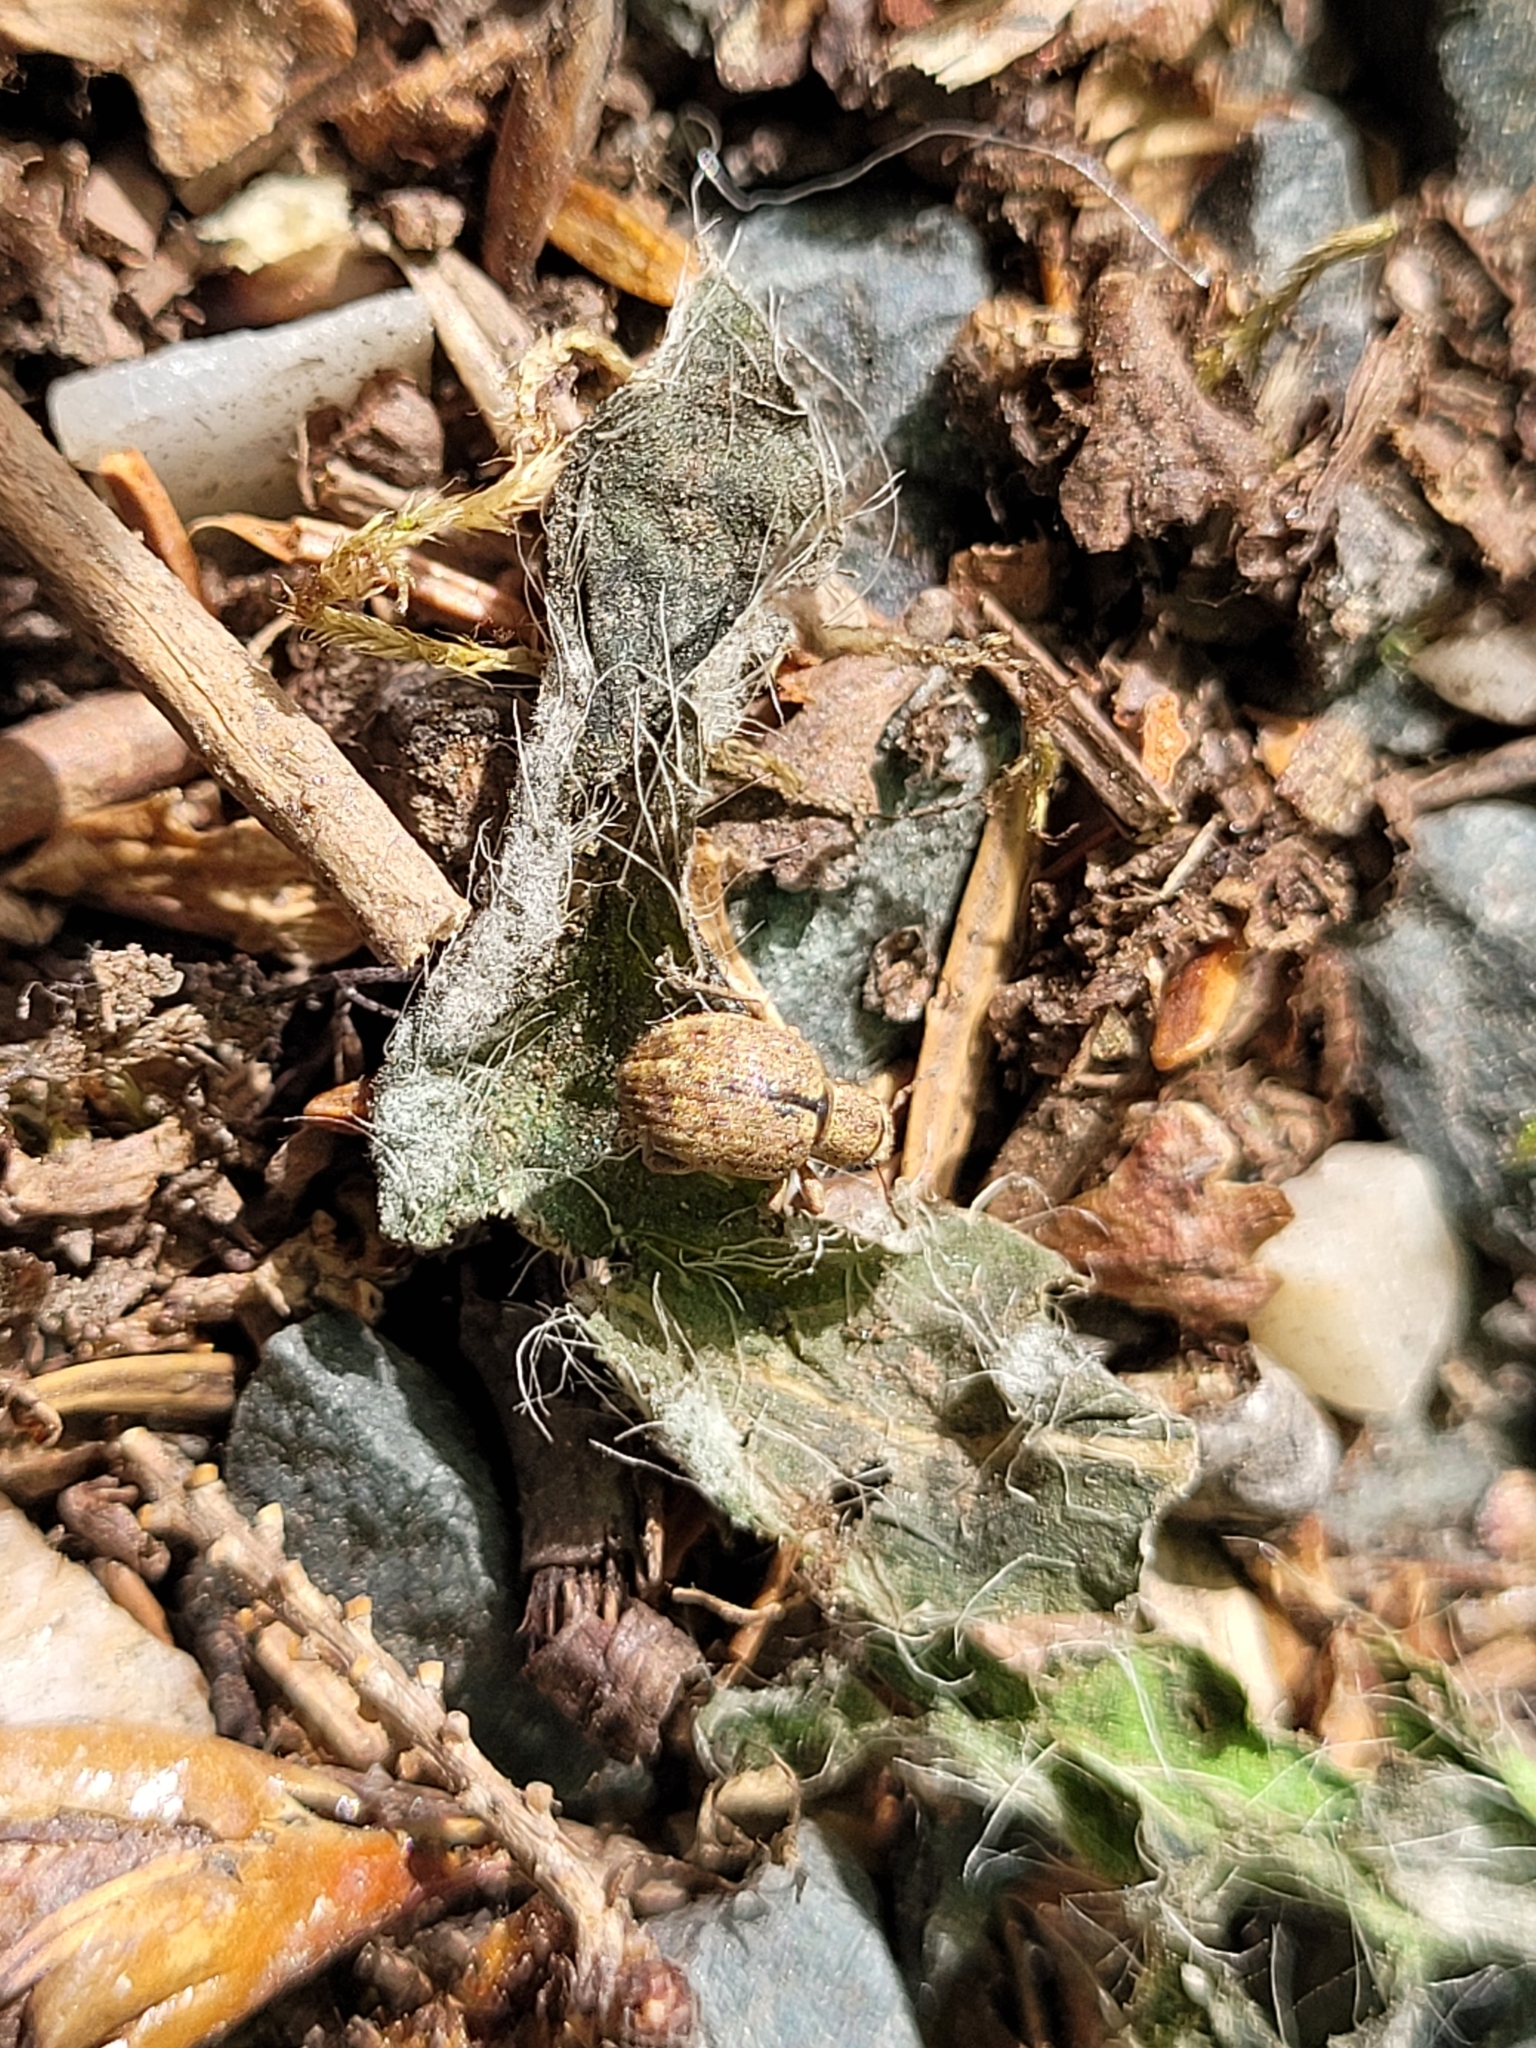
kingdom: Animalia
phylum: Arthropoda
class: Insecta
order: Coleoptera
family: Curculionidae
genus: Strophosoma
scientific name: Strophosoma melanogrammum
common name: Weevil
